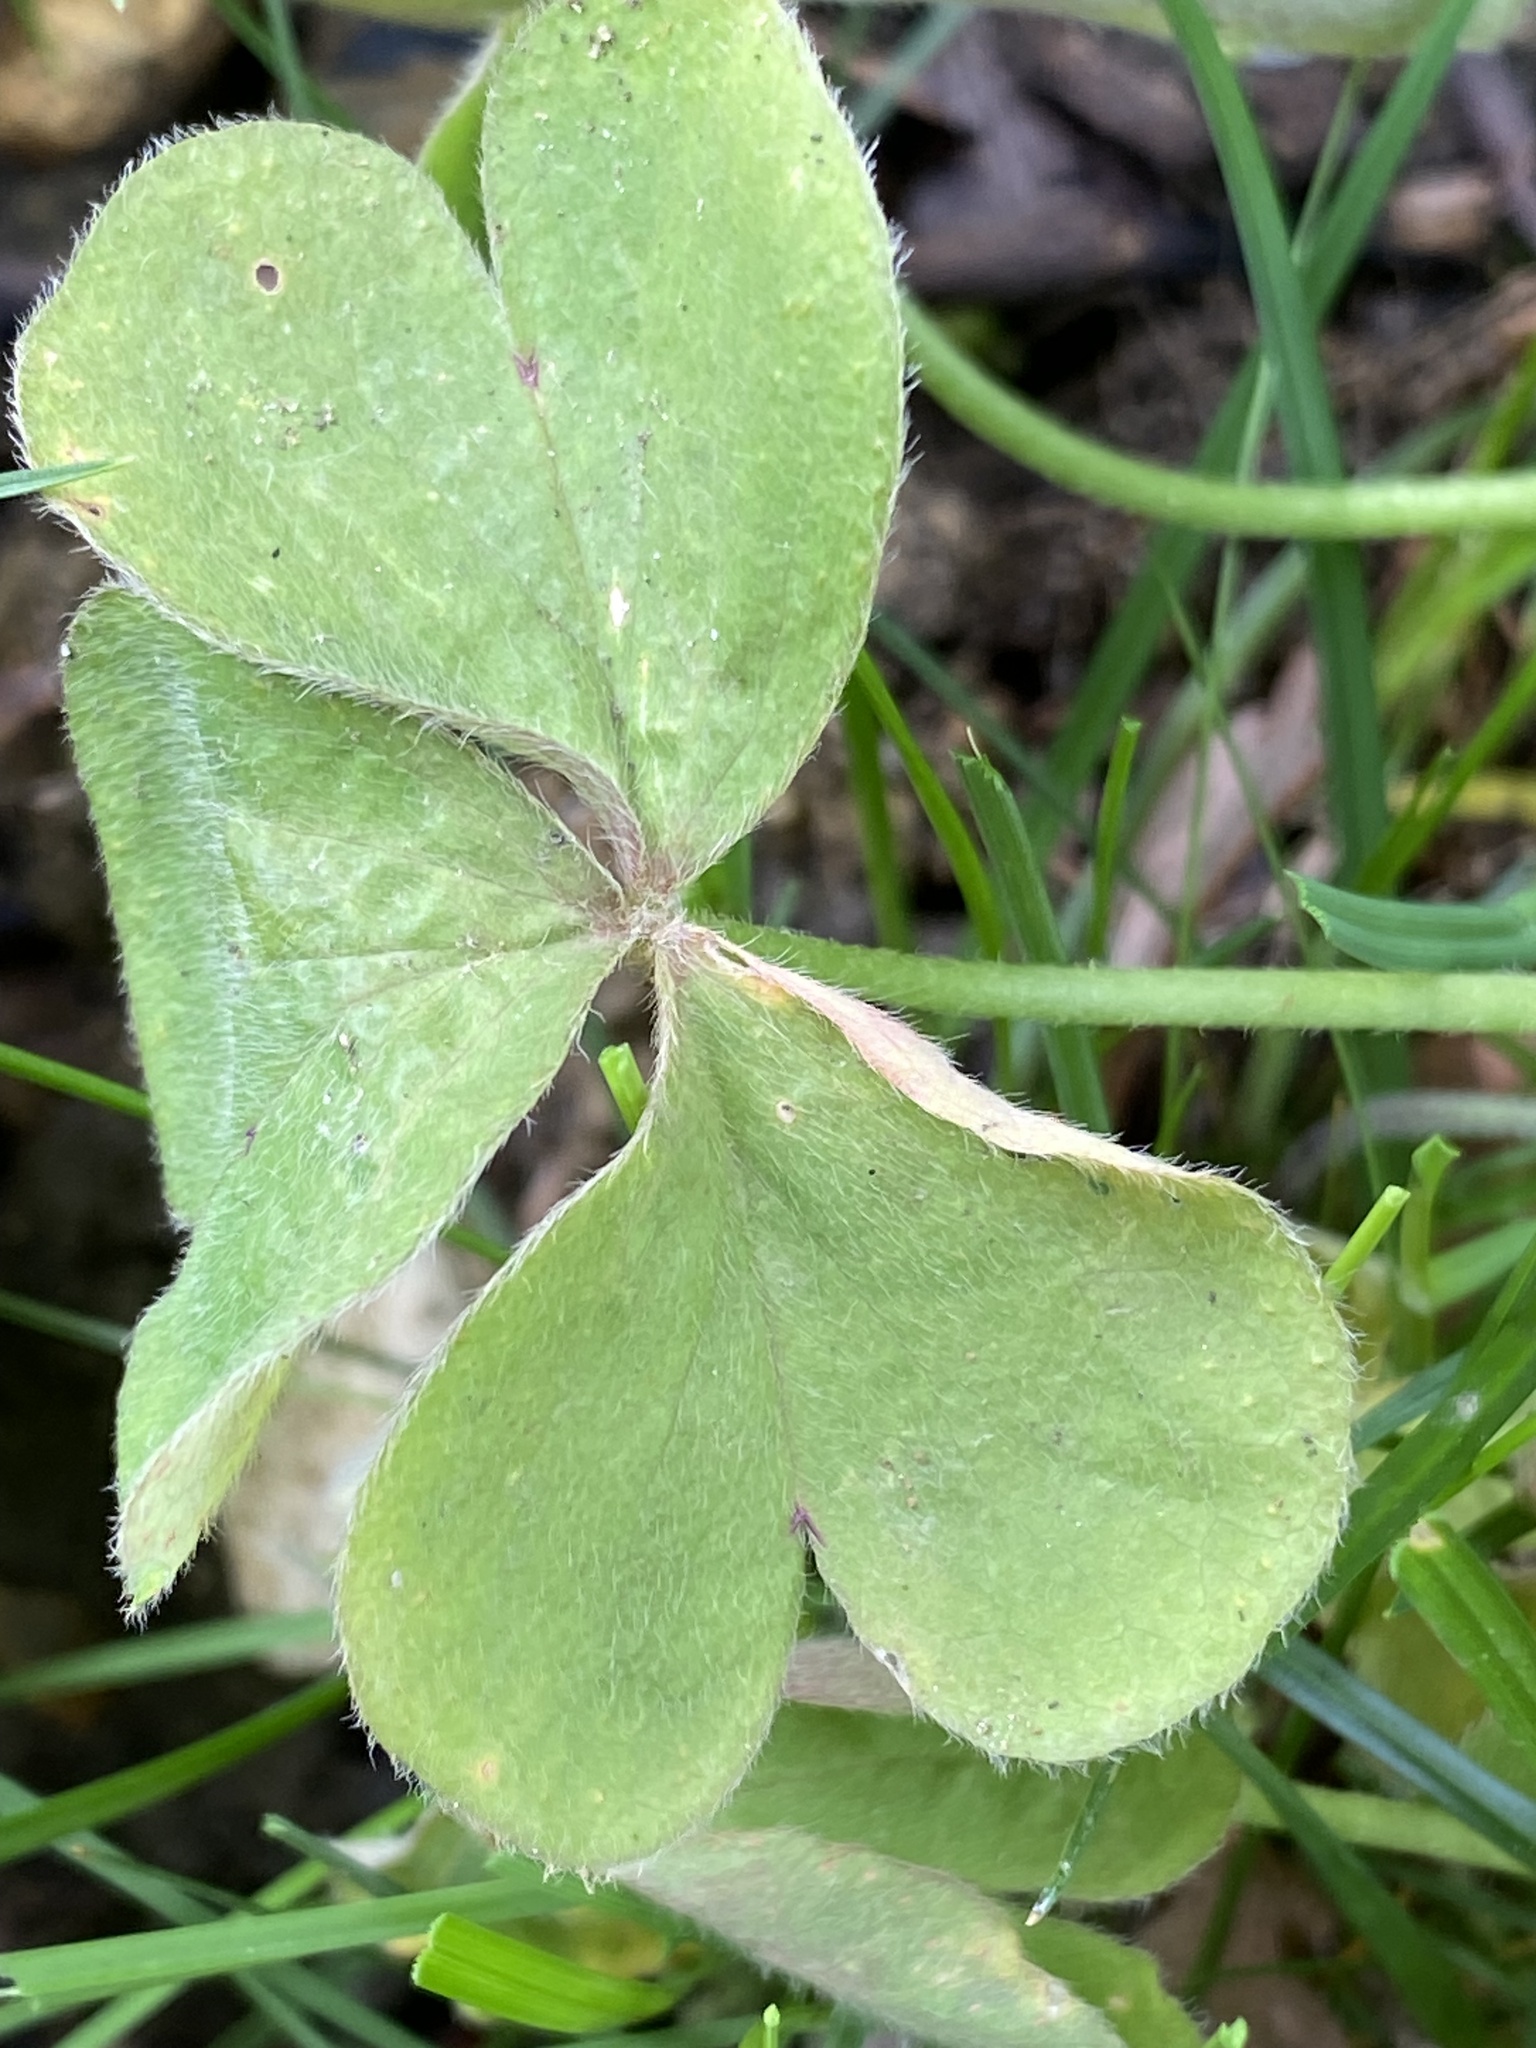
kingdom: Plantae
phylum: Tracheophyta
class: Magnoliopsida
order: Oxalidales
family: Oxalidaceae
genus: Oxalis
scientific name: Oxalis articulata
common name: Pink-sorrel
